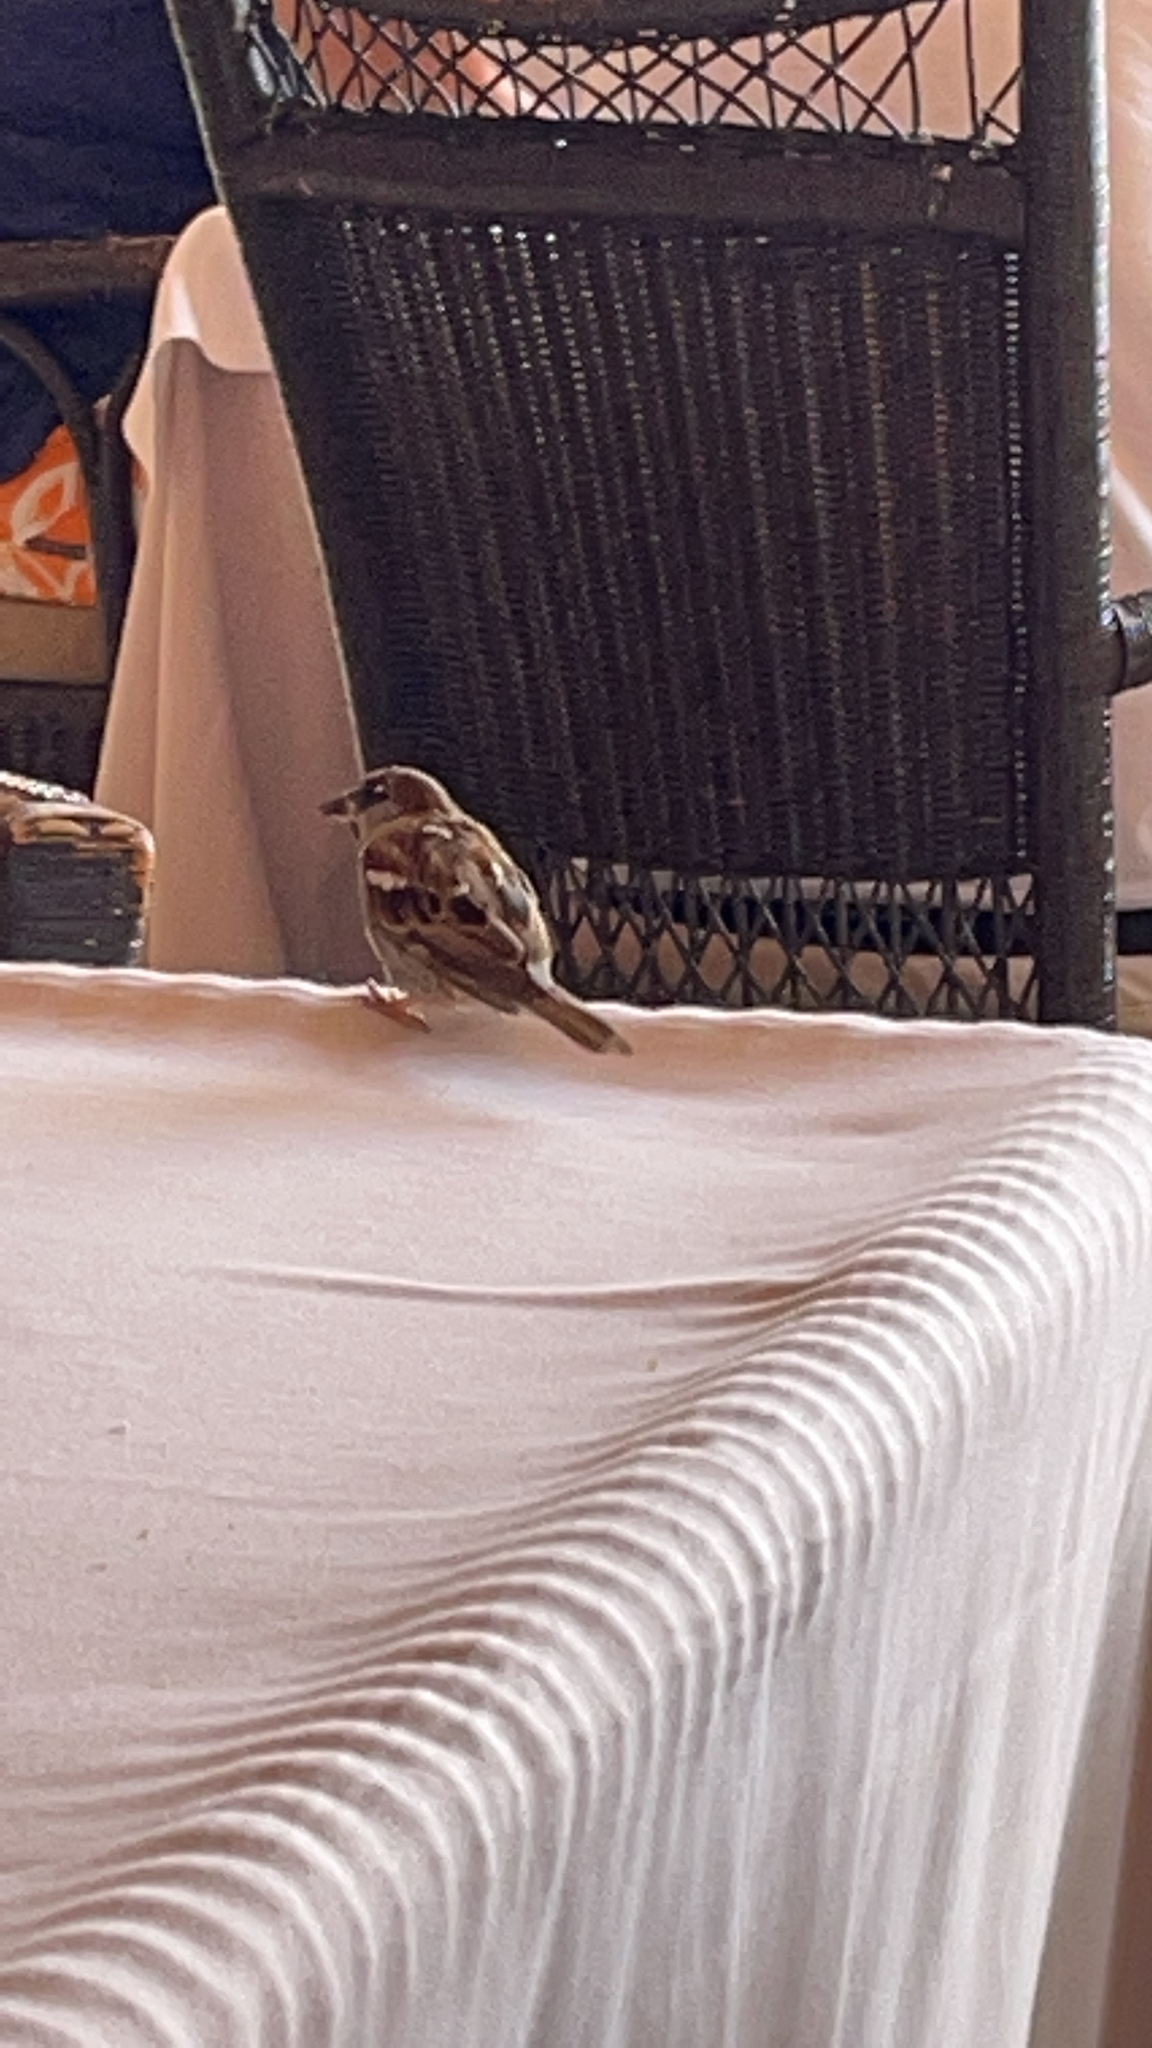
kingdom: Animalia
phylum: Chordata
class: Aves
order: Passeriformes
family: Passeridae
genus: Passer
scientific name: Passer domesticus
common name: House sparrow
